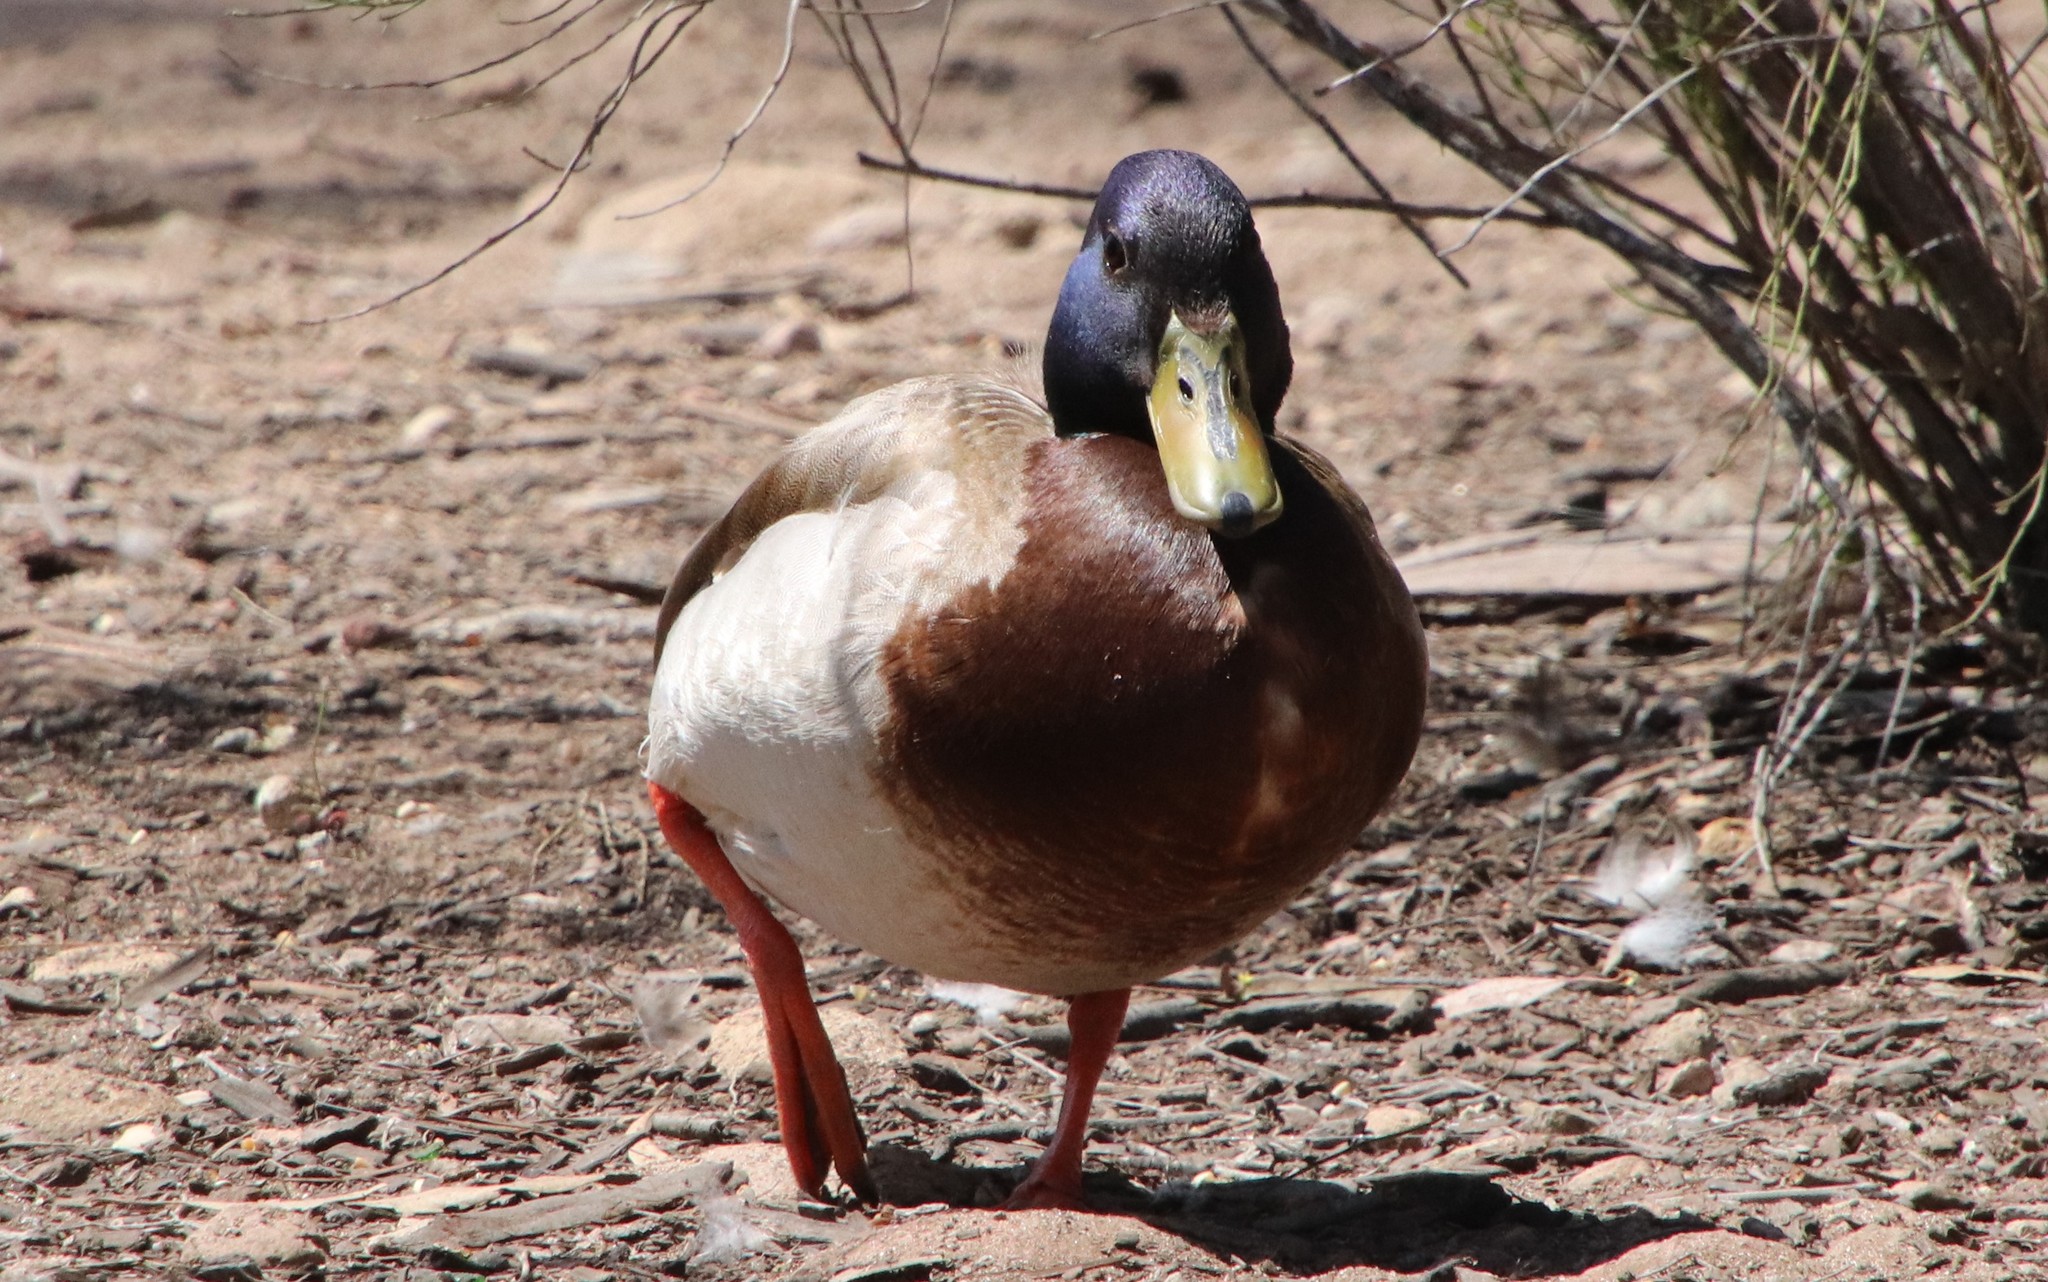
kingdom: Animalia
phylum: Chordata
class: Aves
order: Anseriformes
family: Anatidae
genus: Anas
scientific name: Anas platyrhynchos
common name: Mallard
